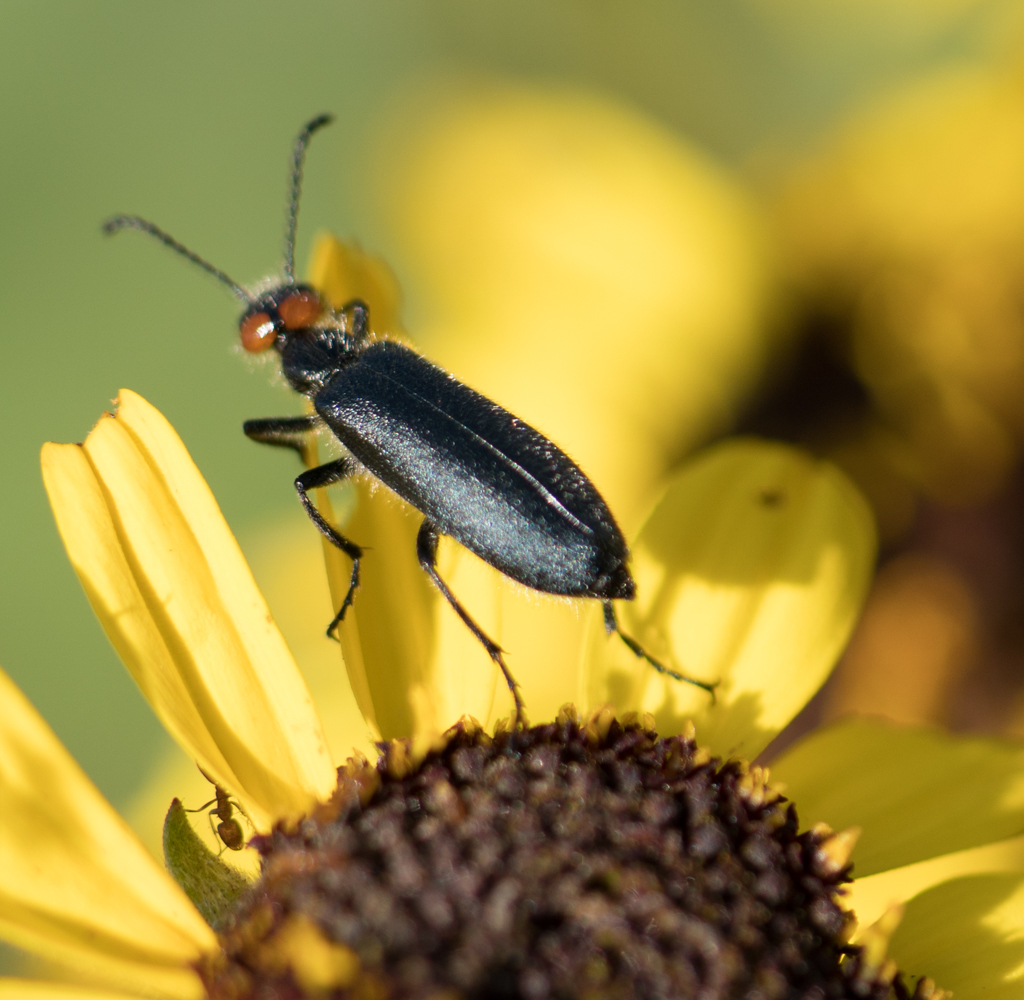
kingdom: Animalia
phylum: Arthropoda
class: Insecta
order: Coleoptera
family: Meloidae
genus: Lytta
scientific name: Lytta auriculata
